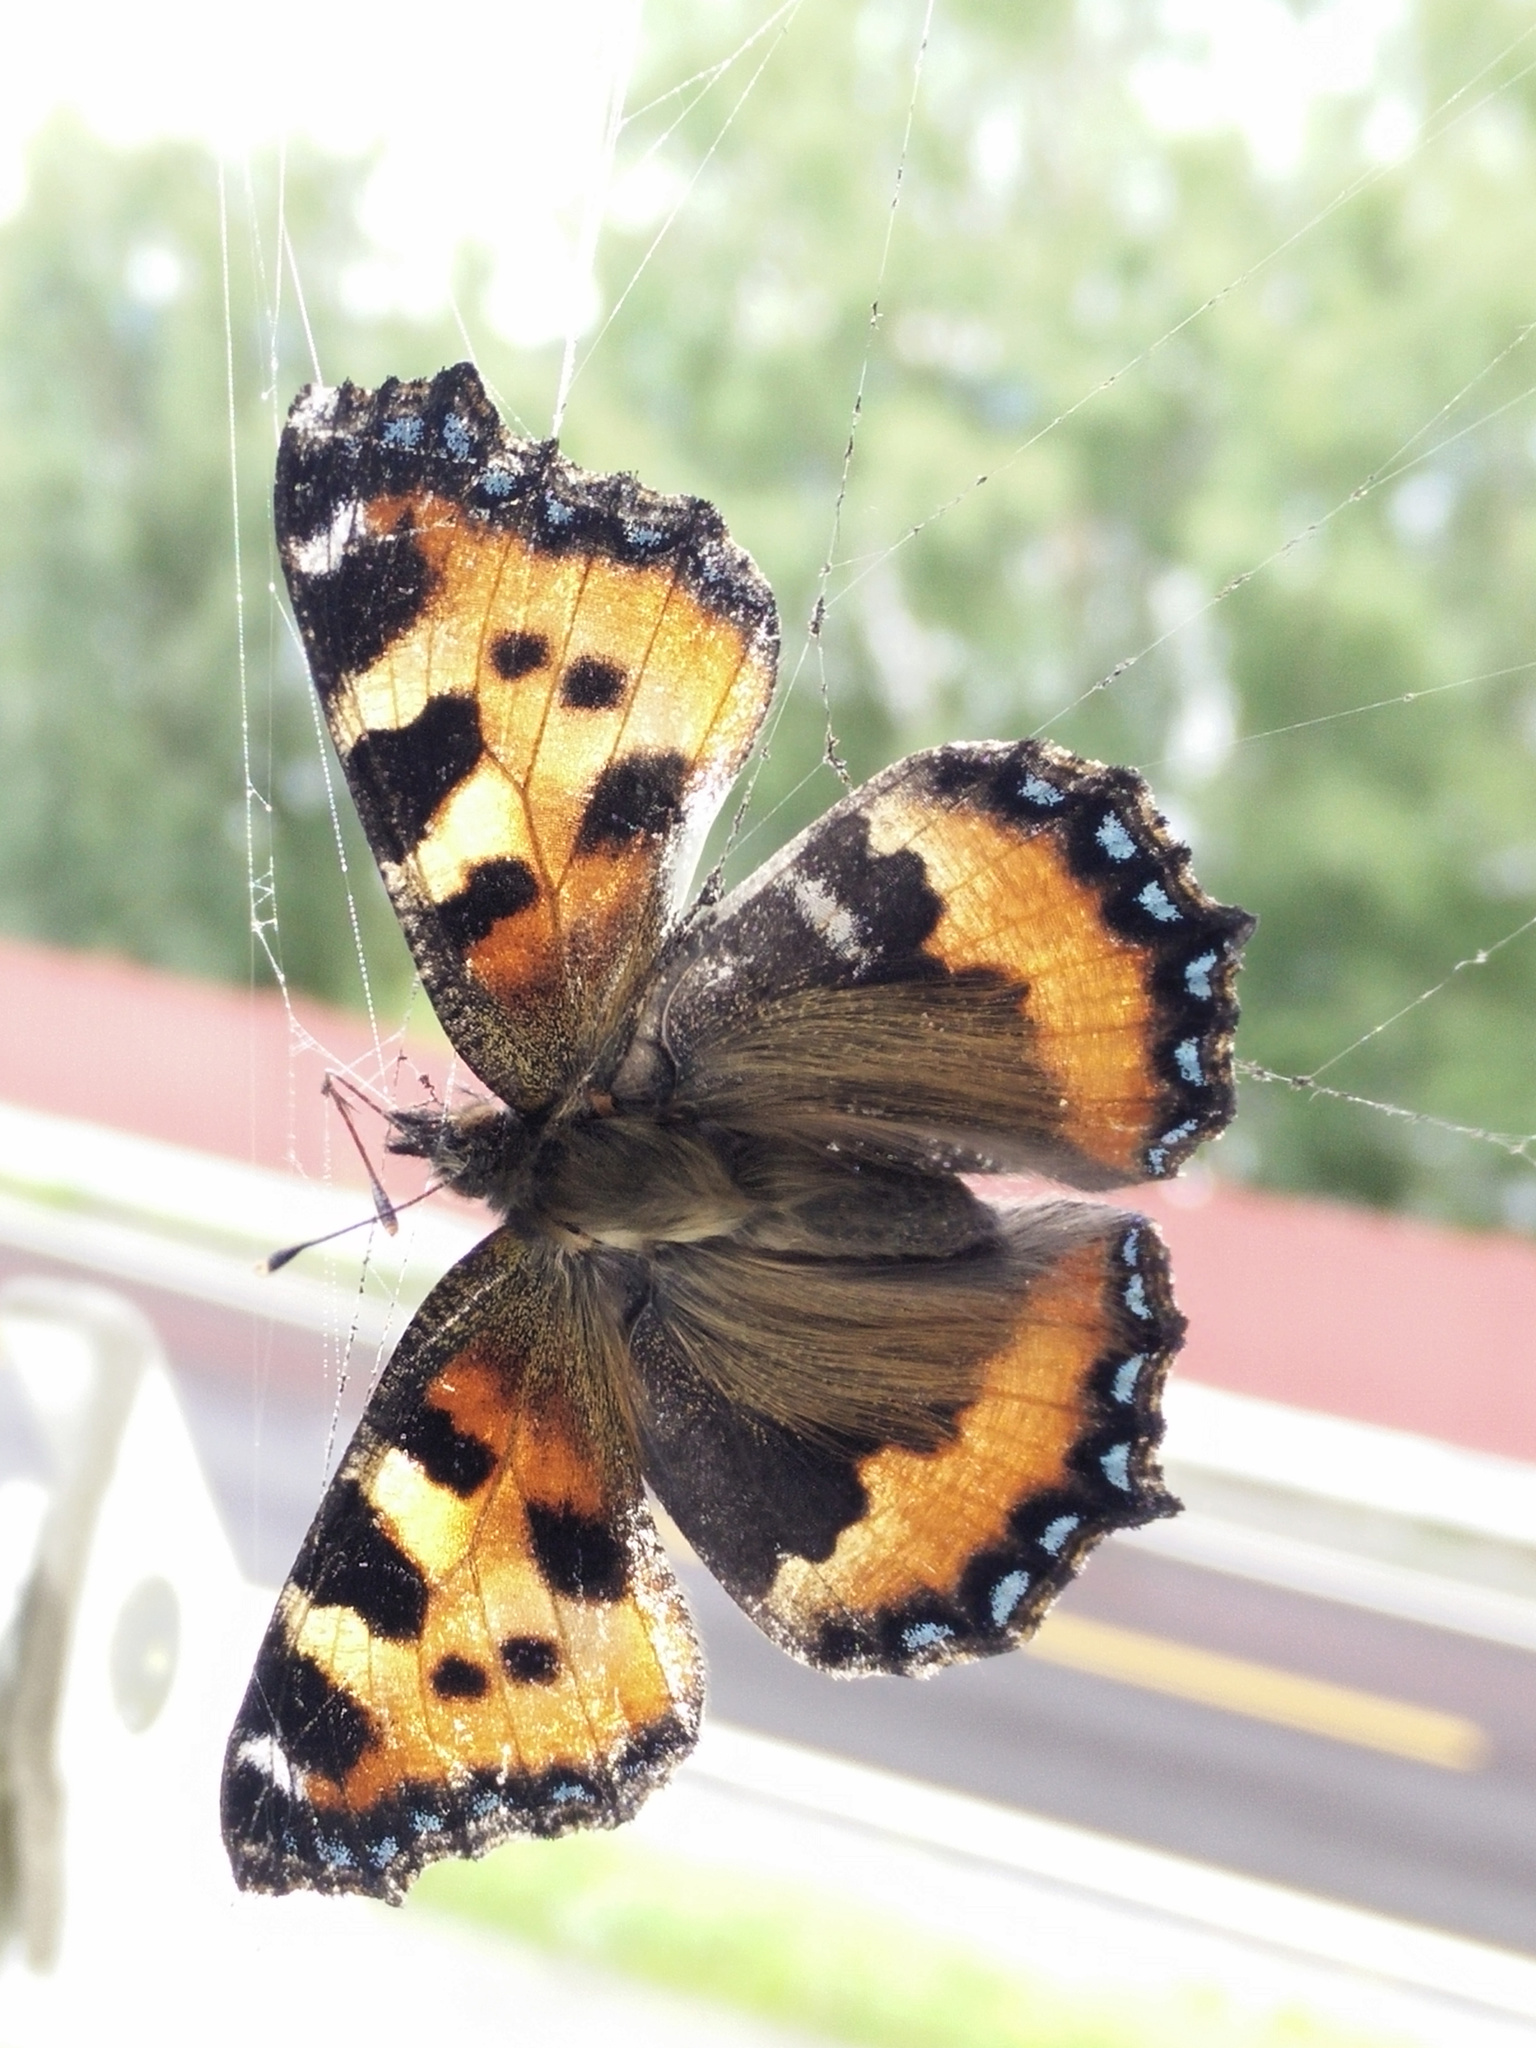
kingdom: Animalia
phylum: Arthropoda
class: Insecta
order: Lepidoptera
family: Nymphalidae
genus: Aglais
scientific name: Aglais urticae
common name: Small tortoiseshell
